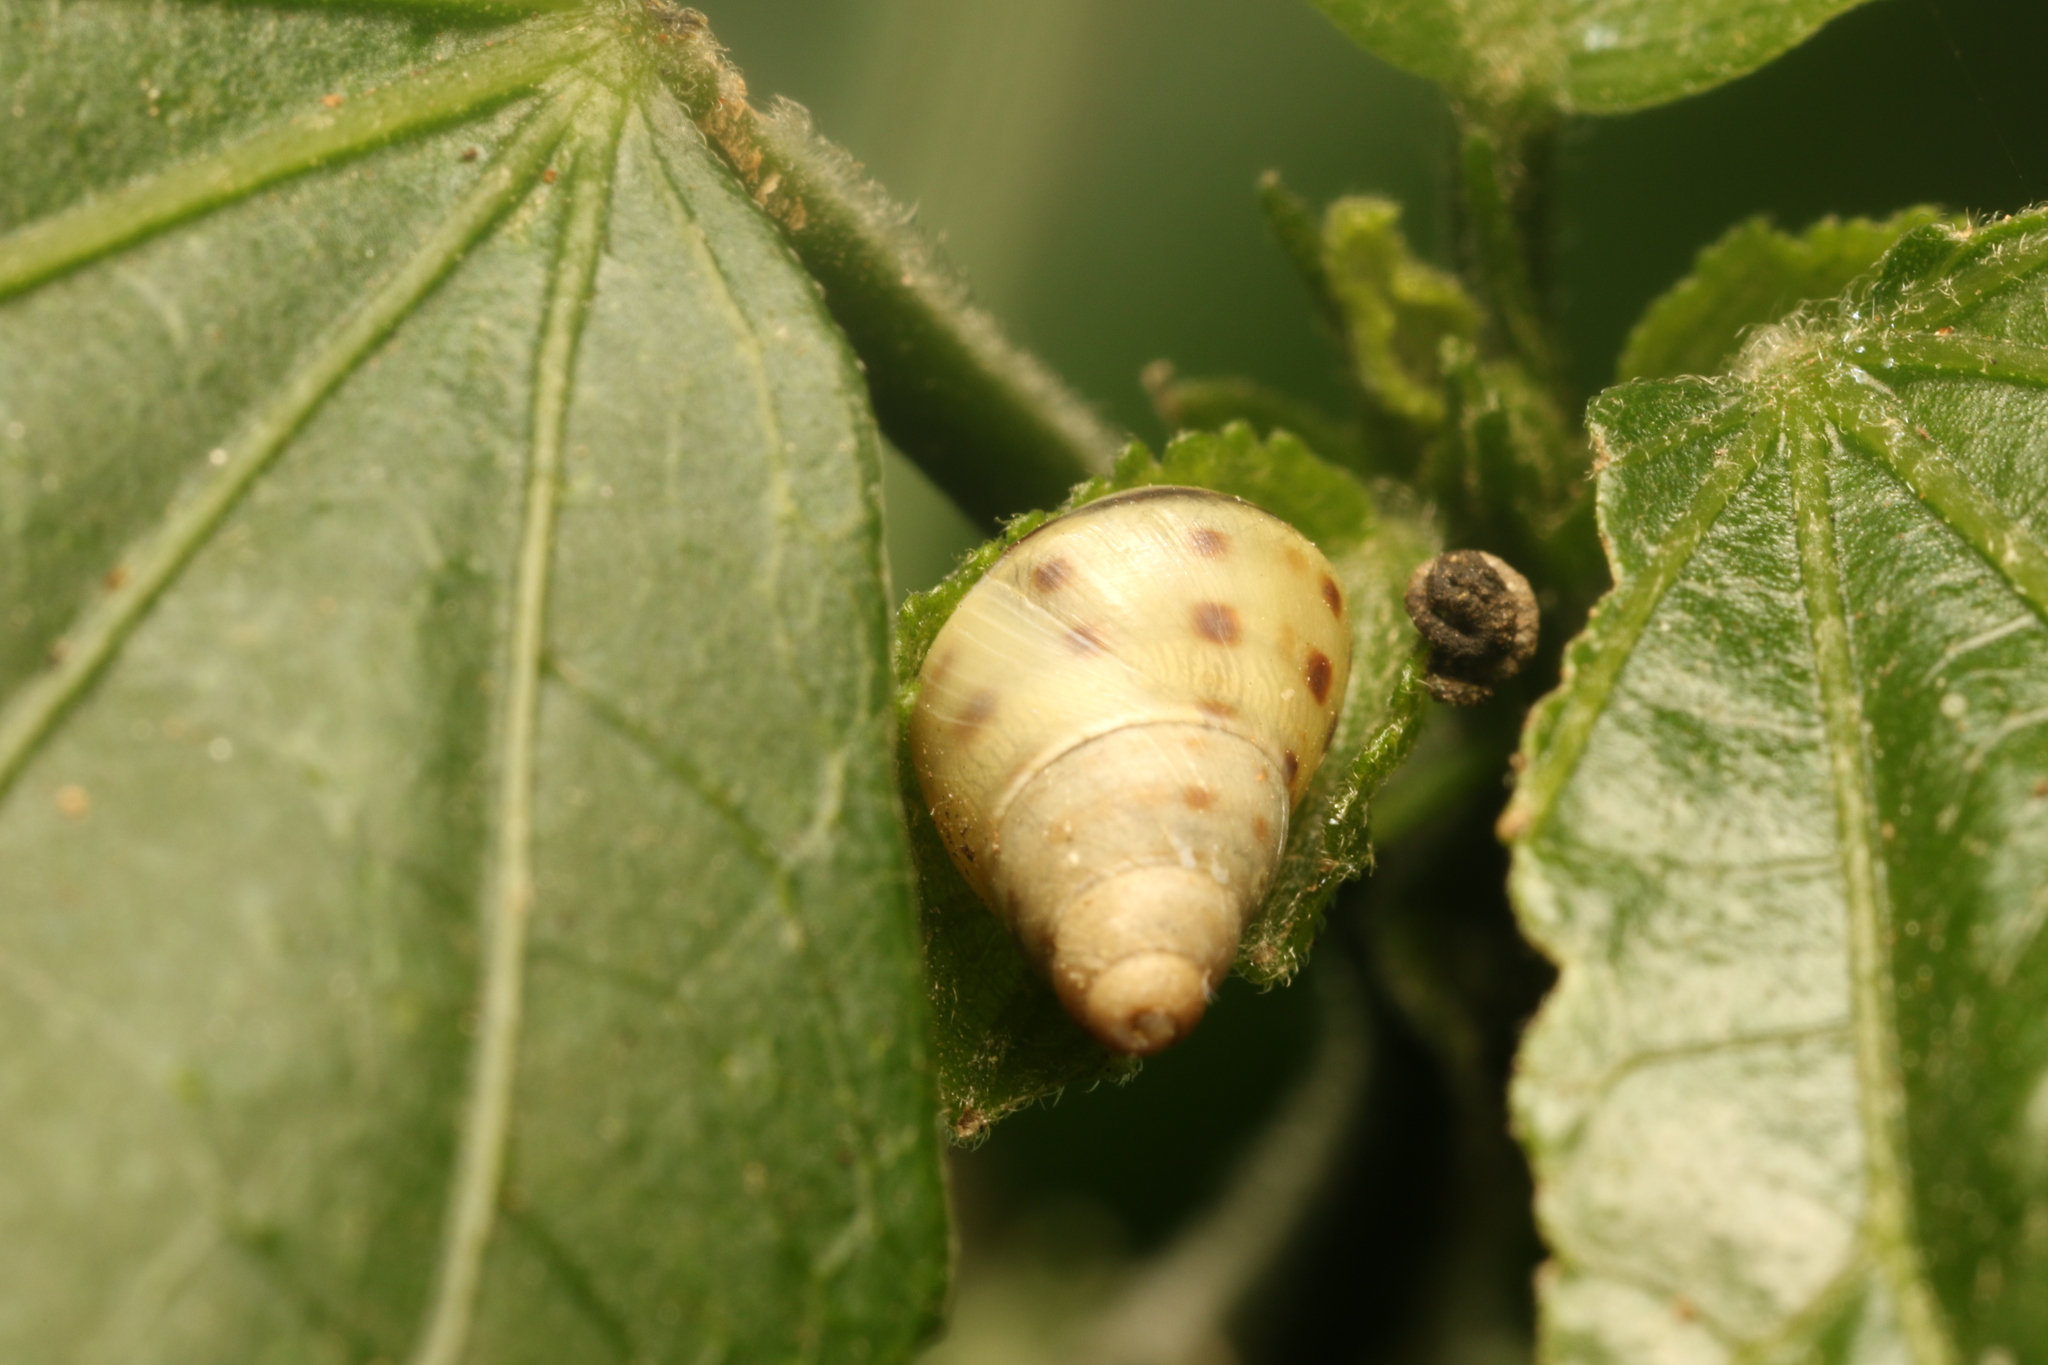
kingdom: Animalia
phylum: Mollusca
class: Gastropoda
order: Stylommatophora
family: Bulimulidae
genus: Drymaeus
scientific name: Drymaeus
